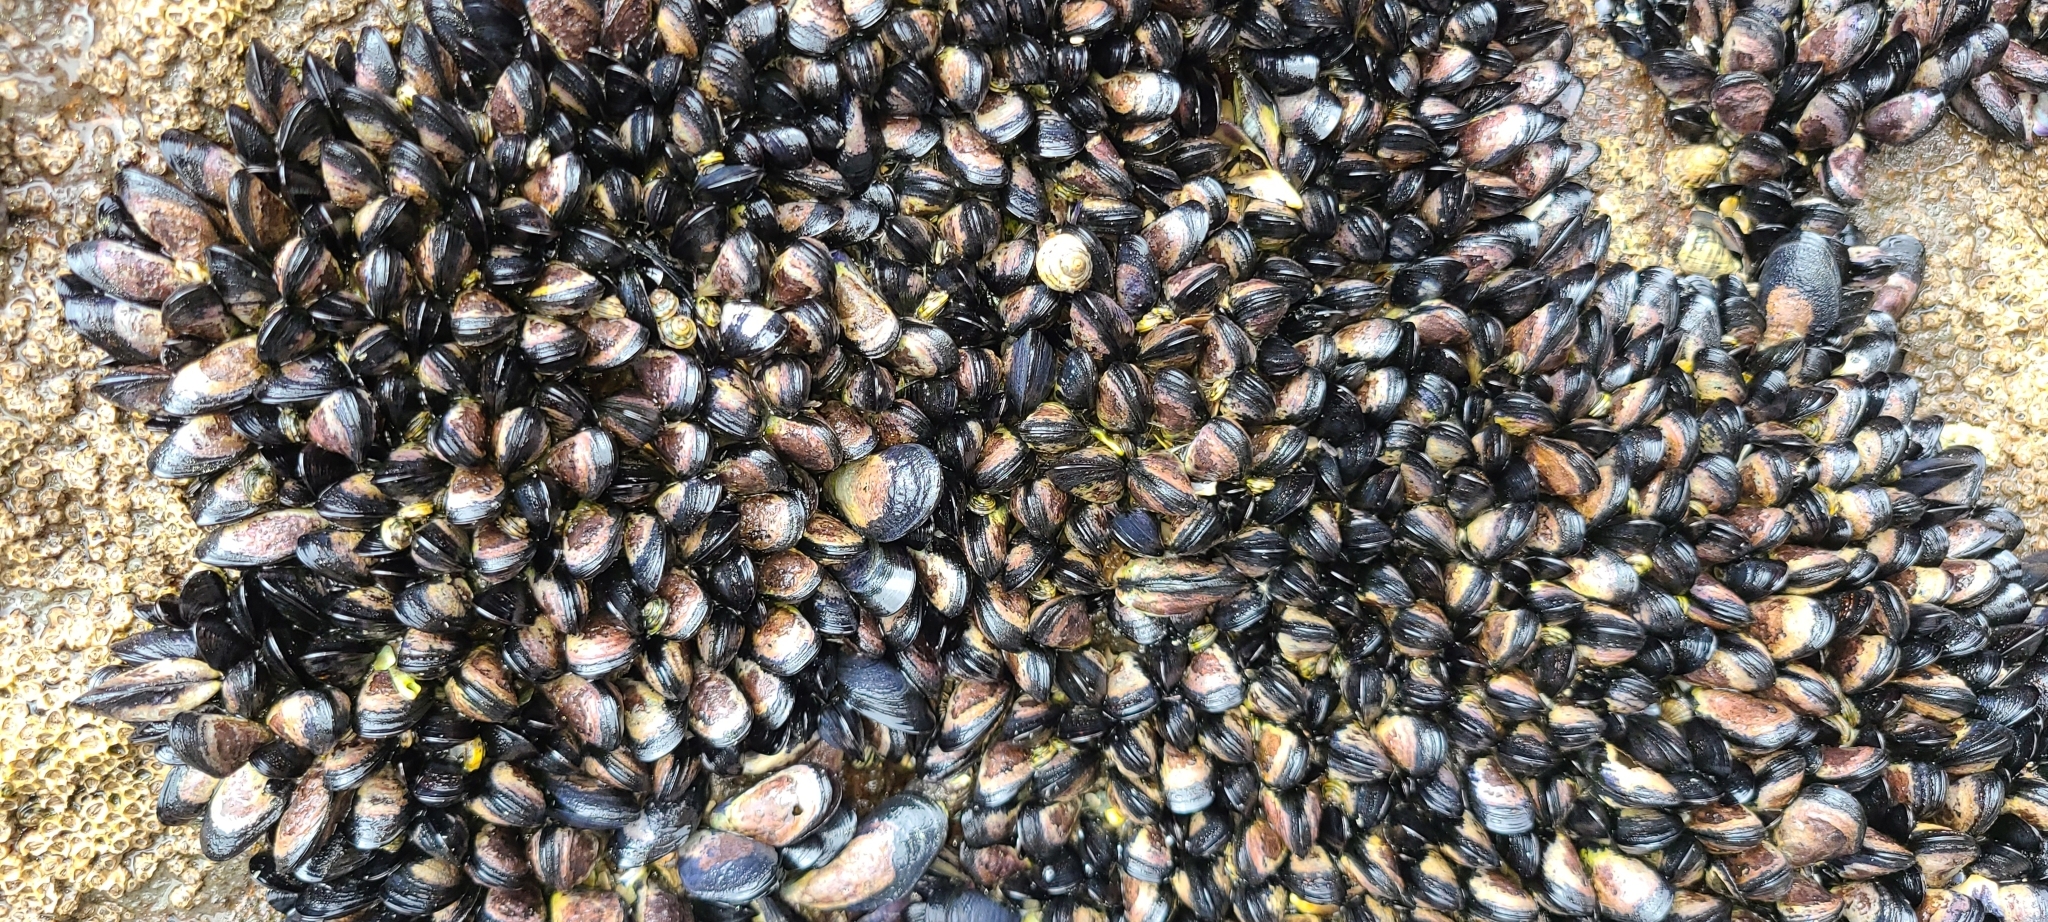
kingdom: Animalia
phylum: Mollusca
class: Bivalvia
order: Mytilida
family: Mytilidae
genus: Xenostrobus
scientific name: Xenostrobus neozelanicus
